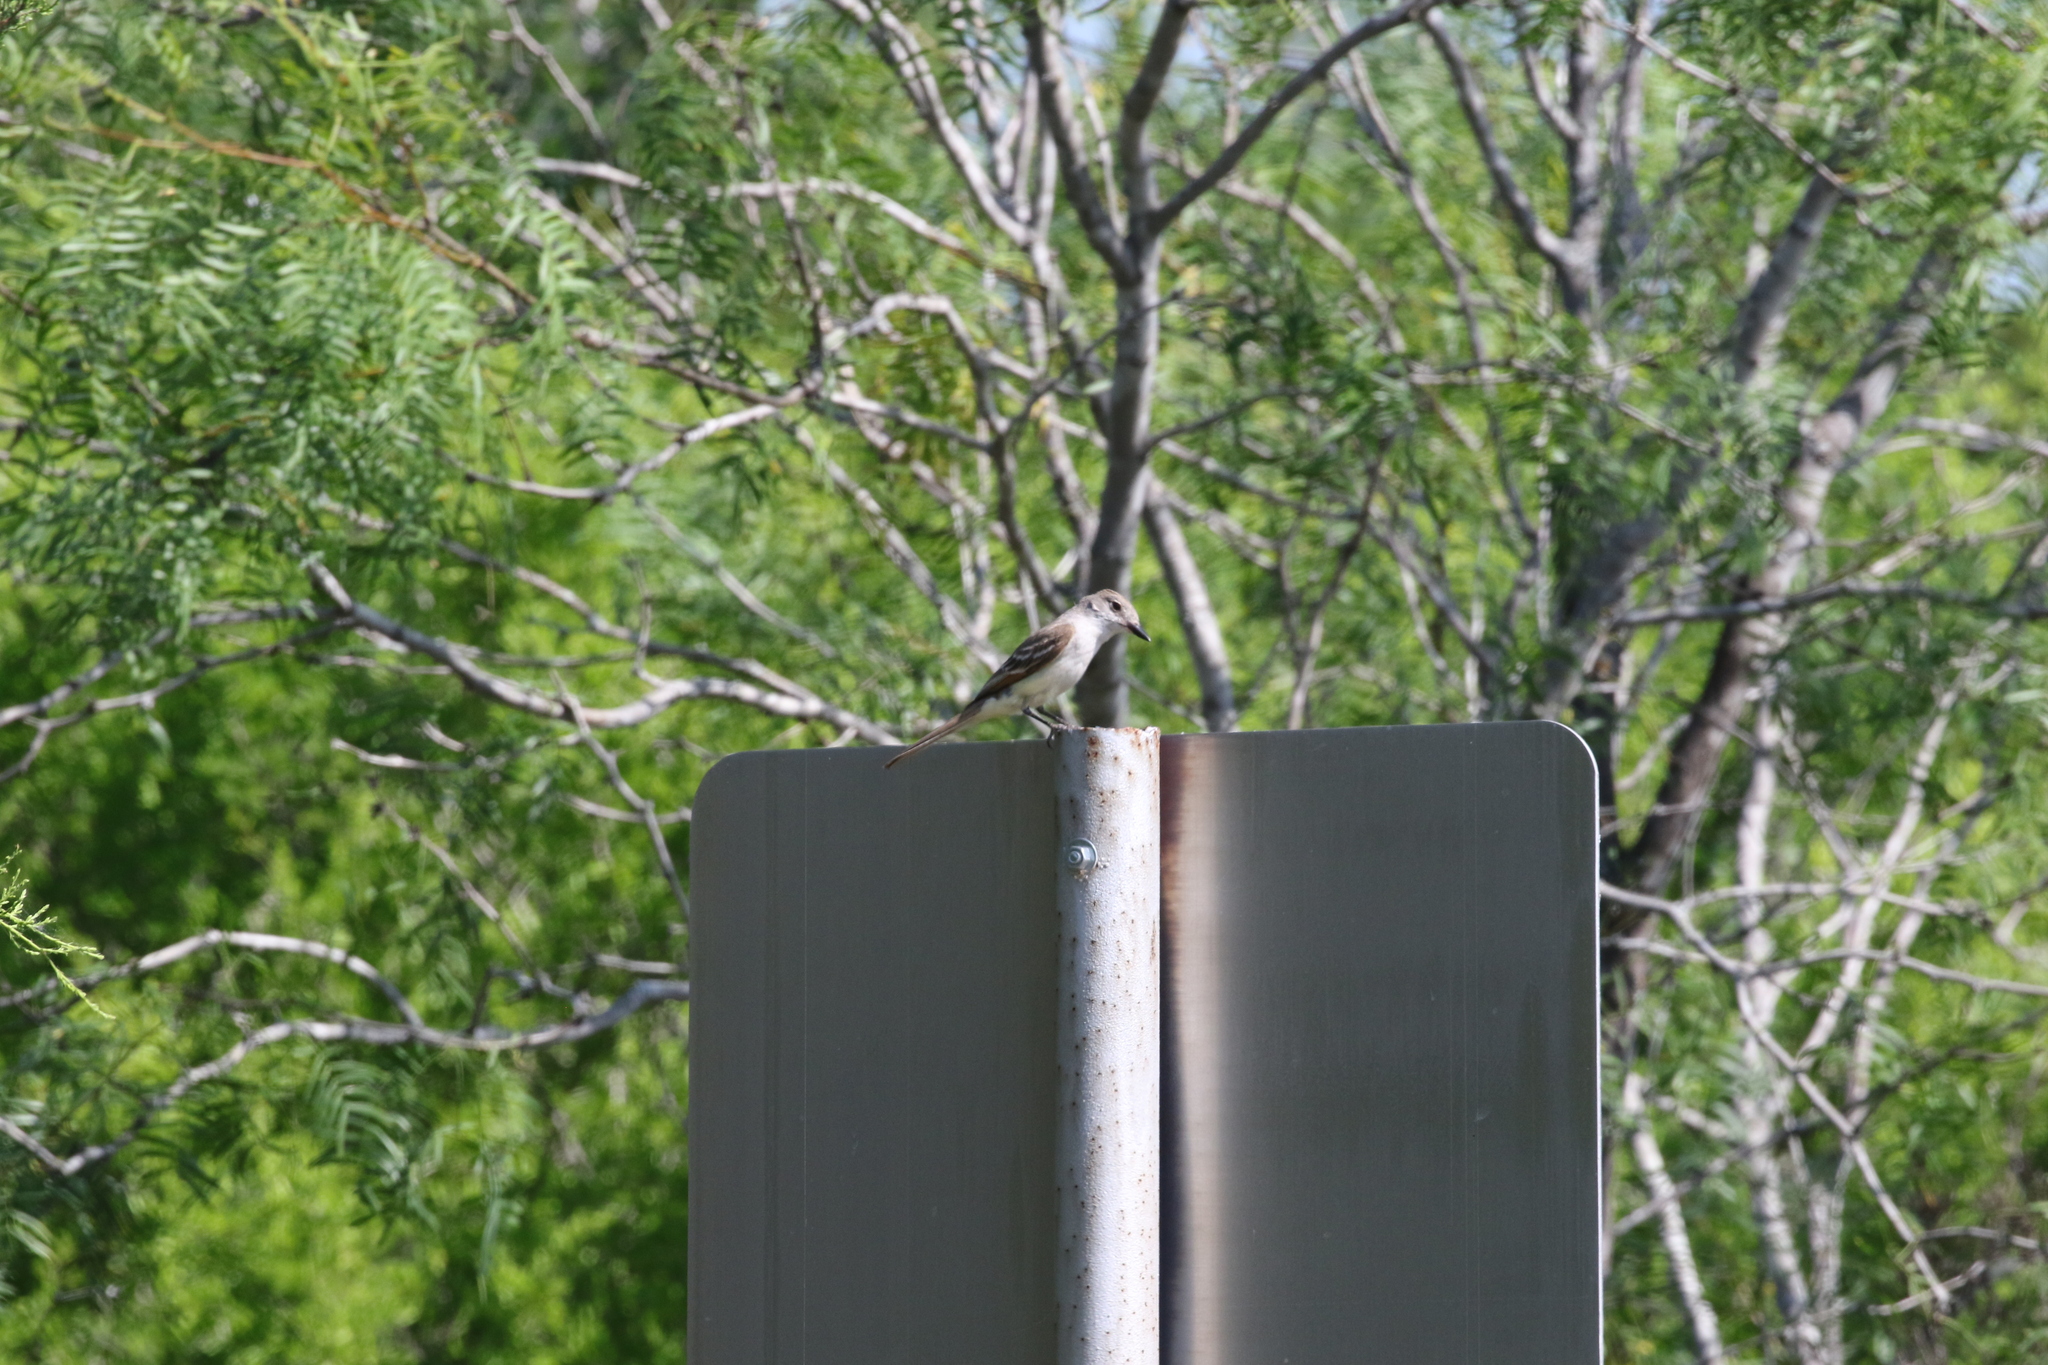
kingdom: Animalia
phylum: Chordata
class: Aves
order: Passeriformes
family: Tyrannidae
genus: Myiarchus
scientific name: Myiarchus cinerascens
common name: Ash-throated flycatcher
